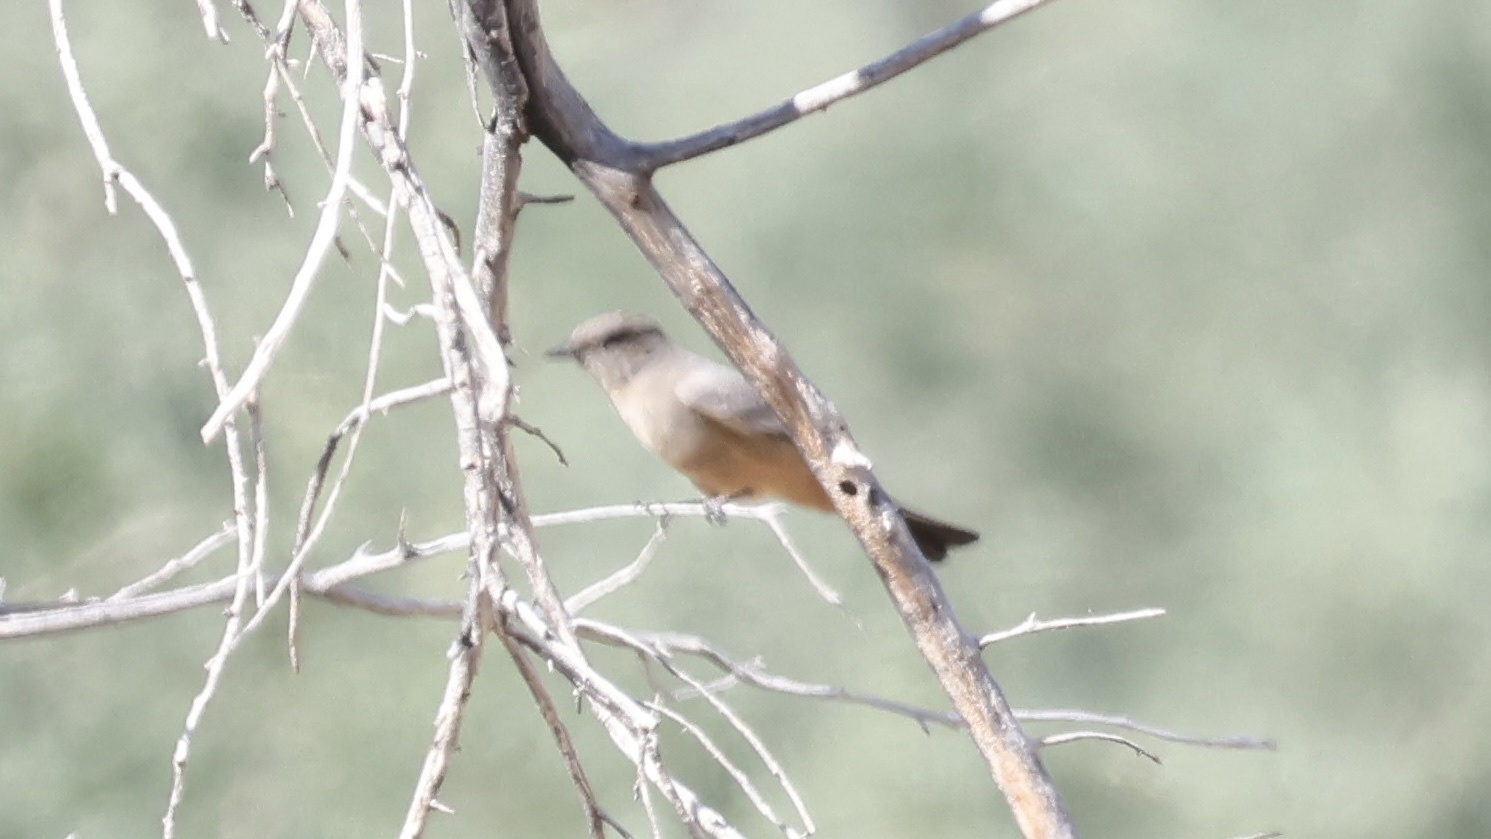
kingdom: Animalia
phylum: Chordata
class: Aves
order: Passeriformes
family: Tyrannidae
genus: Sayornis
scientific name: Sayornis saya
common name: Say's phoebe
